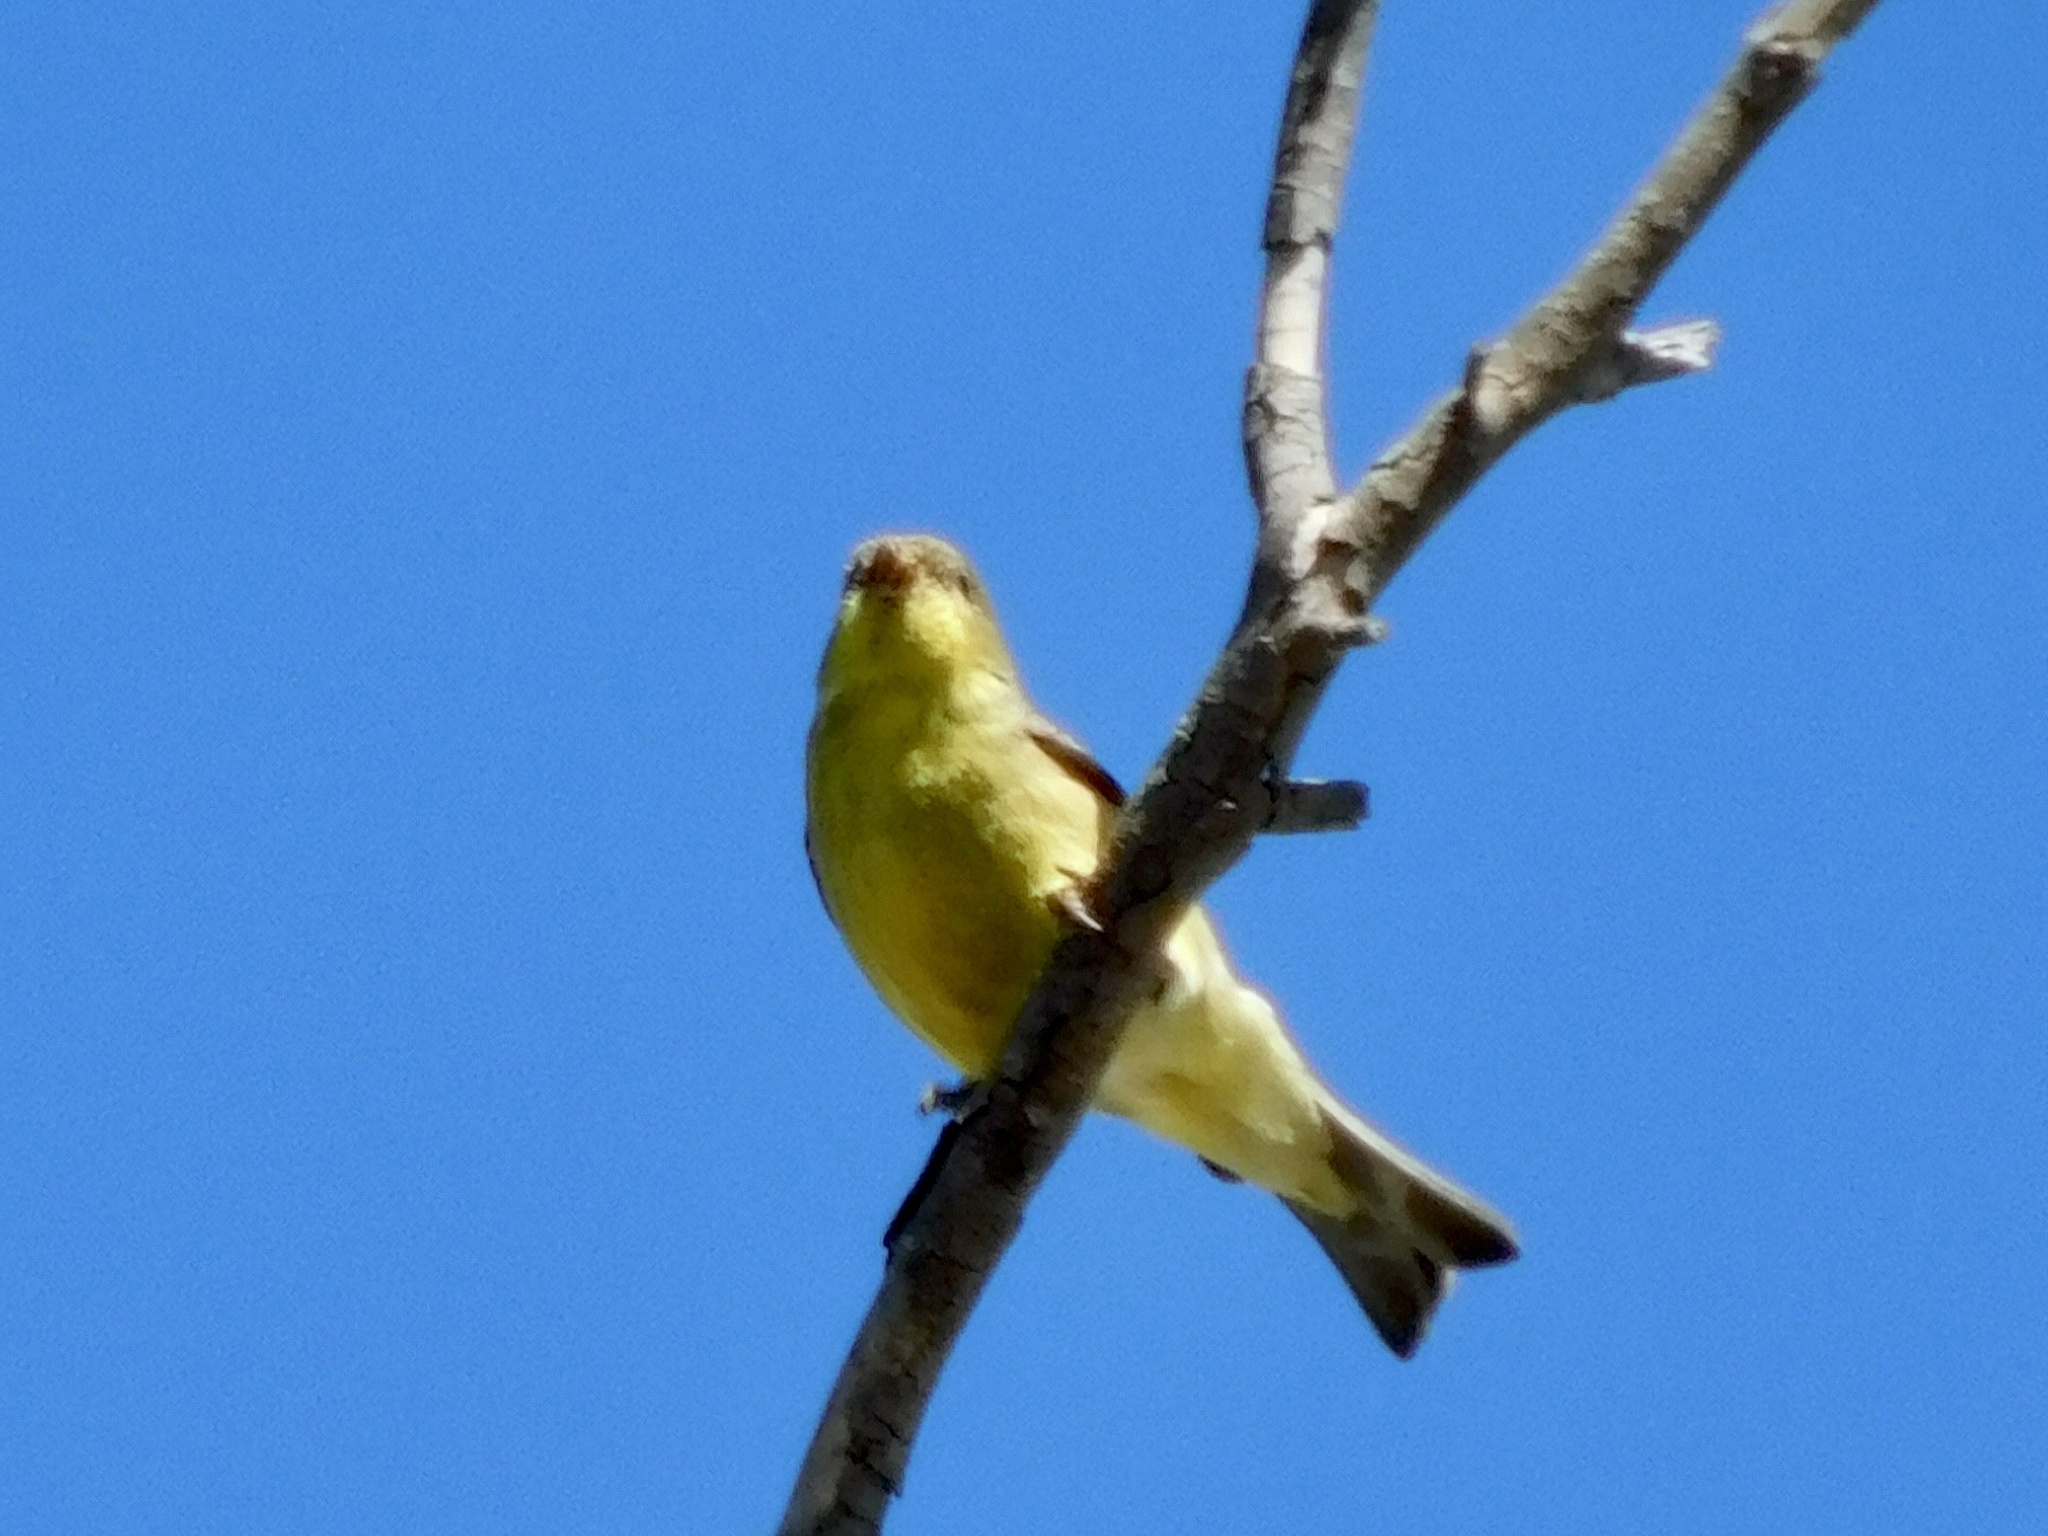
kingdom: Animalia
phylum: Chordata
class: Aves
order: Passeriformes
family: Fringillidae
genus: Spinus
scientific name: Spinus psaltria
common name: Lesser goldfinch
